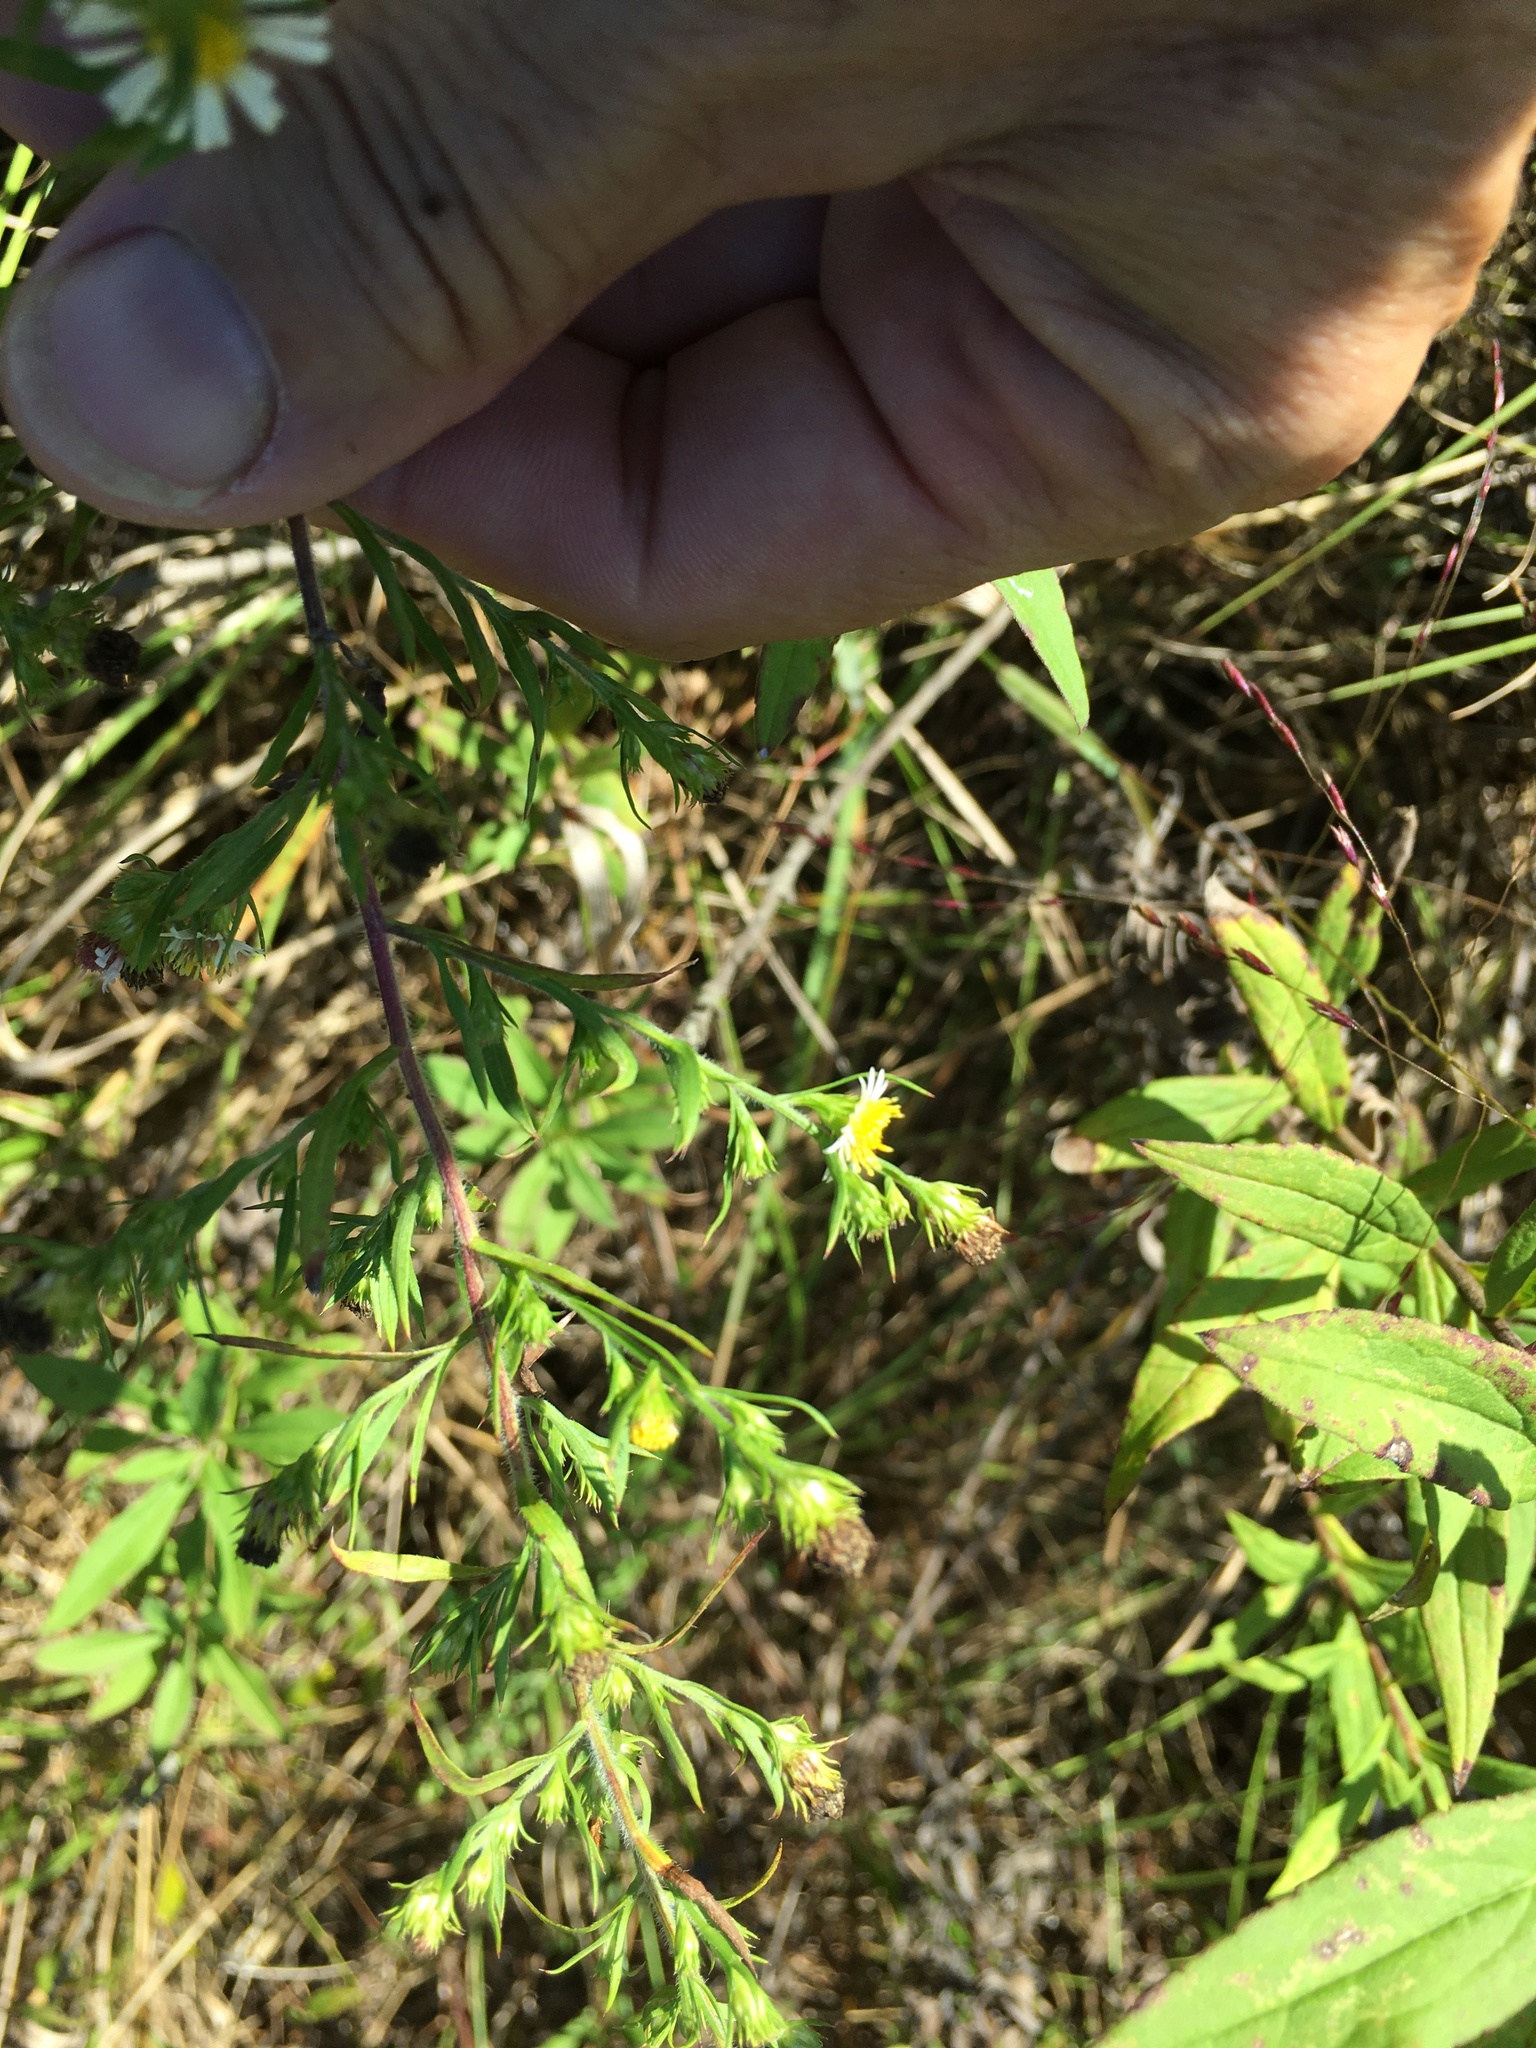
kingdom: Plantae
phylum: Tracheophyta
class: Magnoliopsida
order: Asterales
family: Asteraceae
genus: Symphyotrichum
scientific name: Symphyotrichum pilosum
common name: Awl aster
